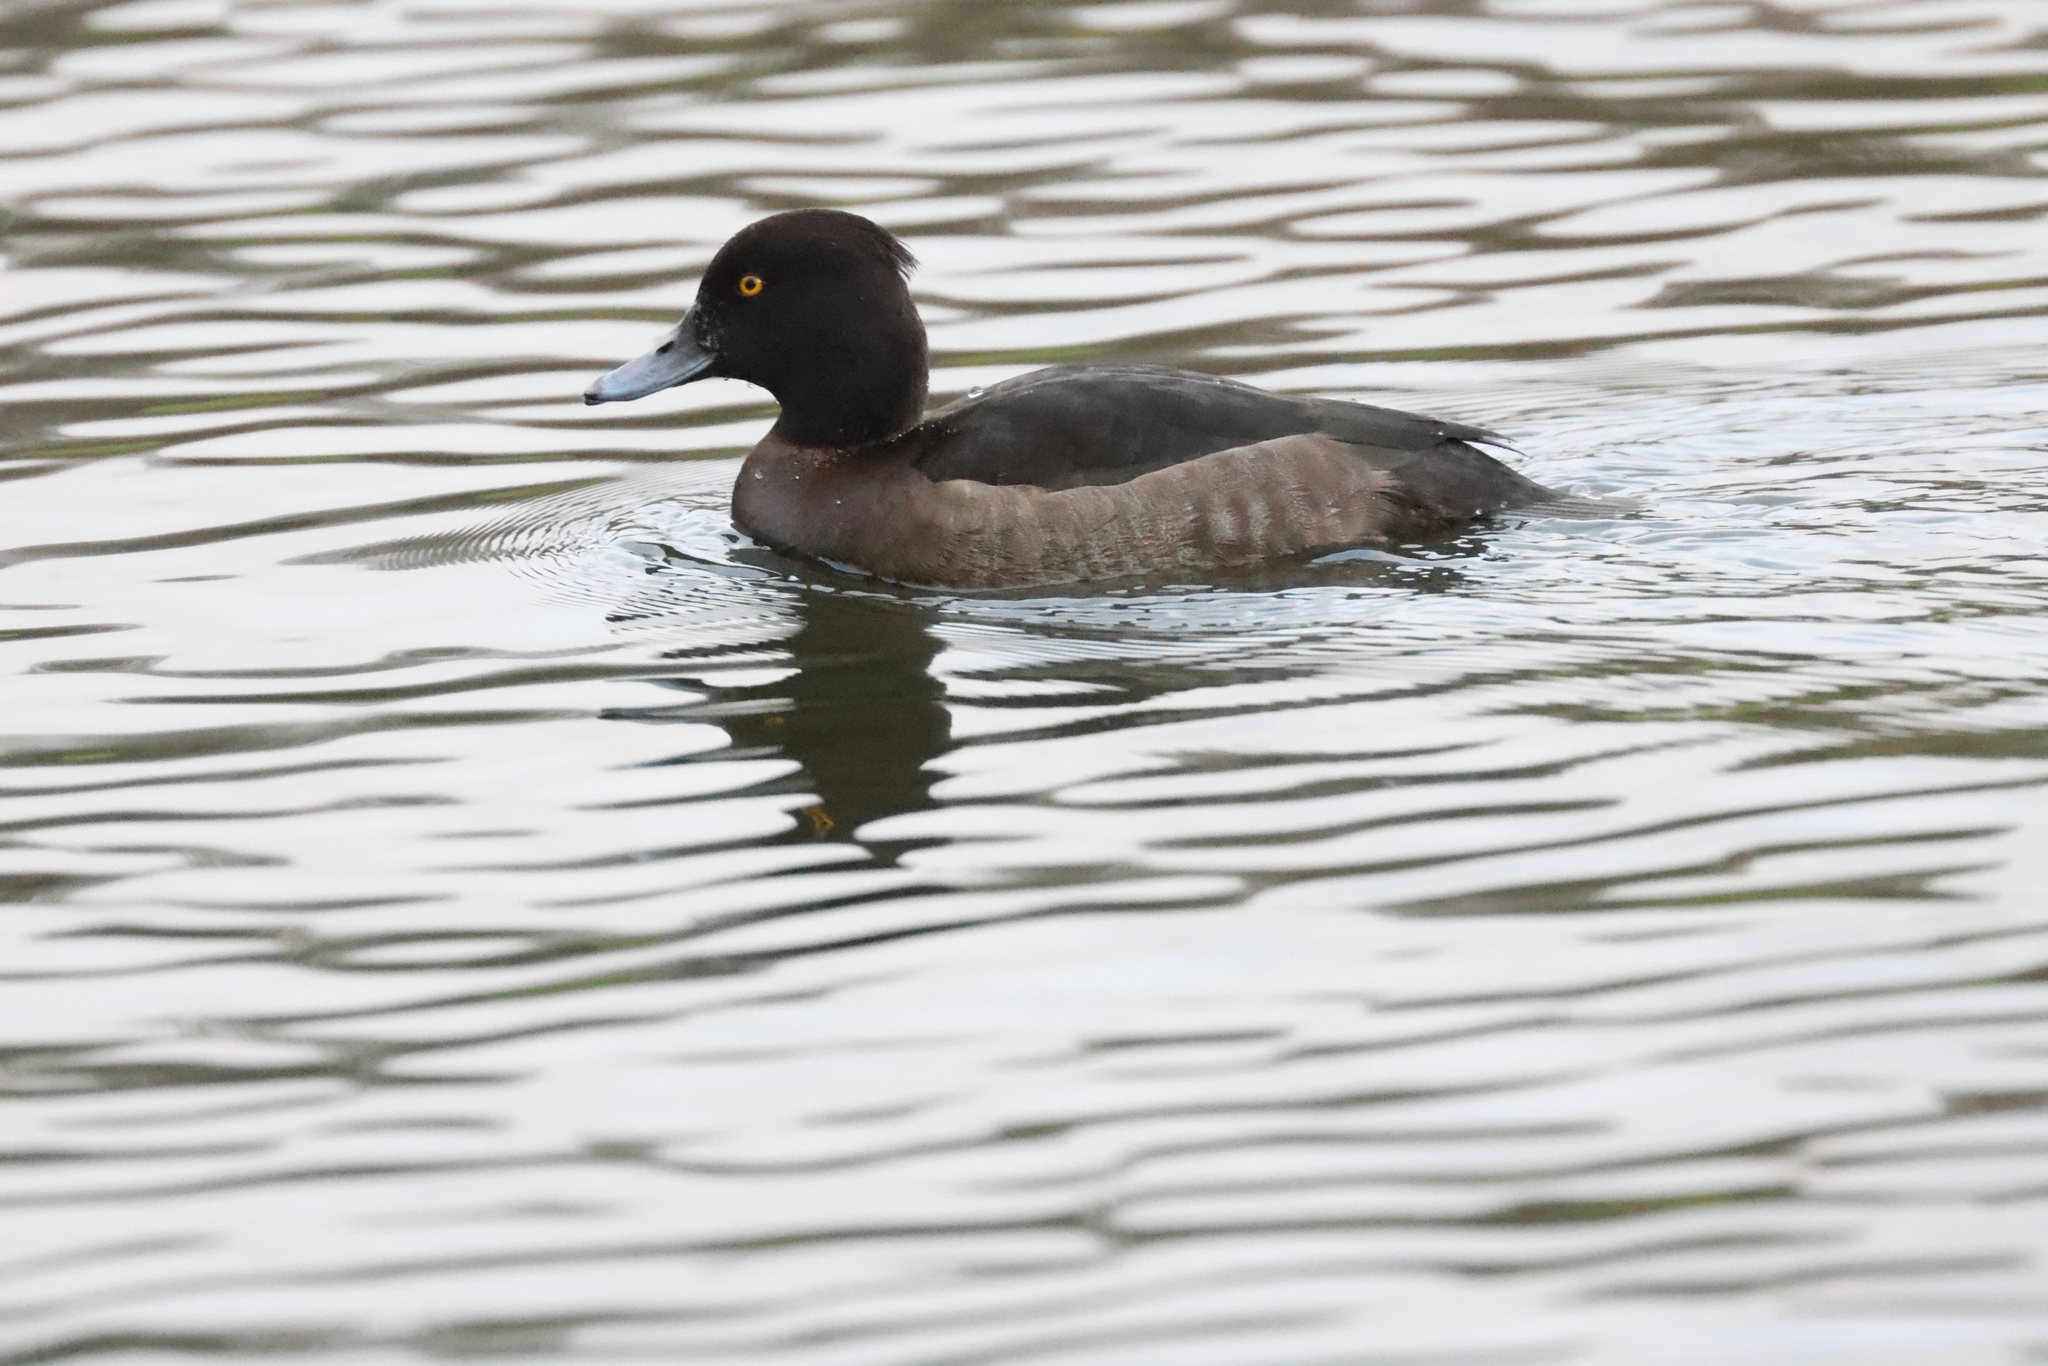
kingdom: Animalia
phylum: Chordata
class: Aves
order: Anseriformes
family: Anatidae
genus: Aythya
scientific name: Aythya fuligula
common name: Tufted duck
